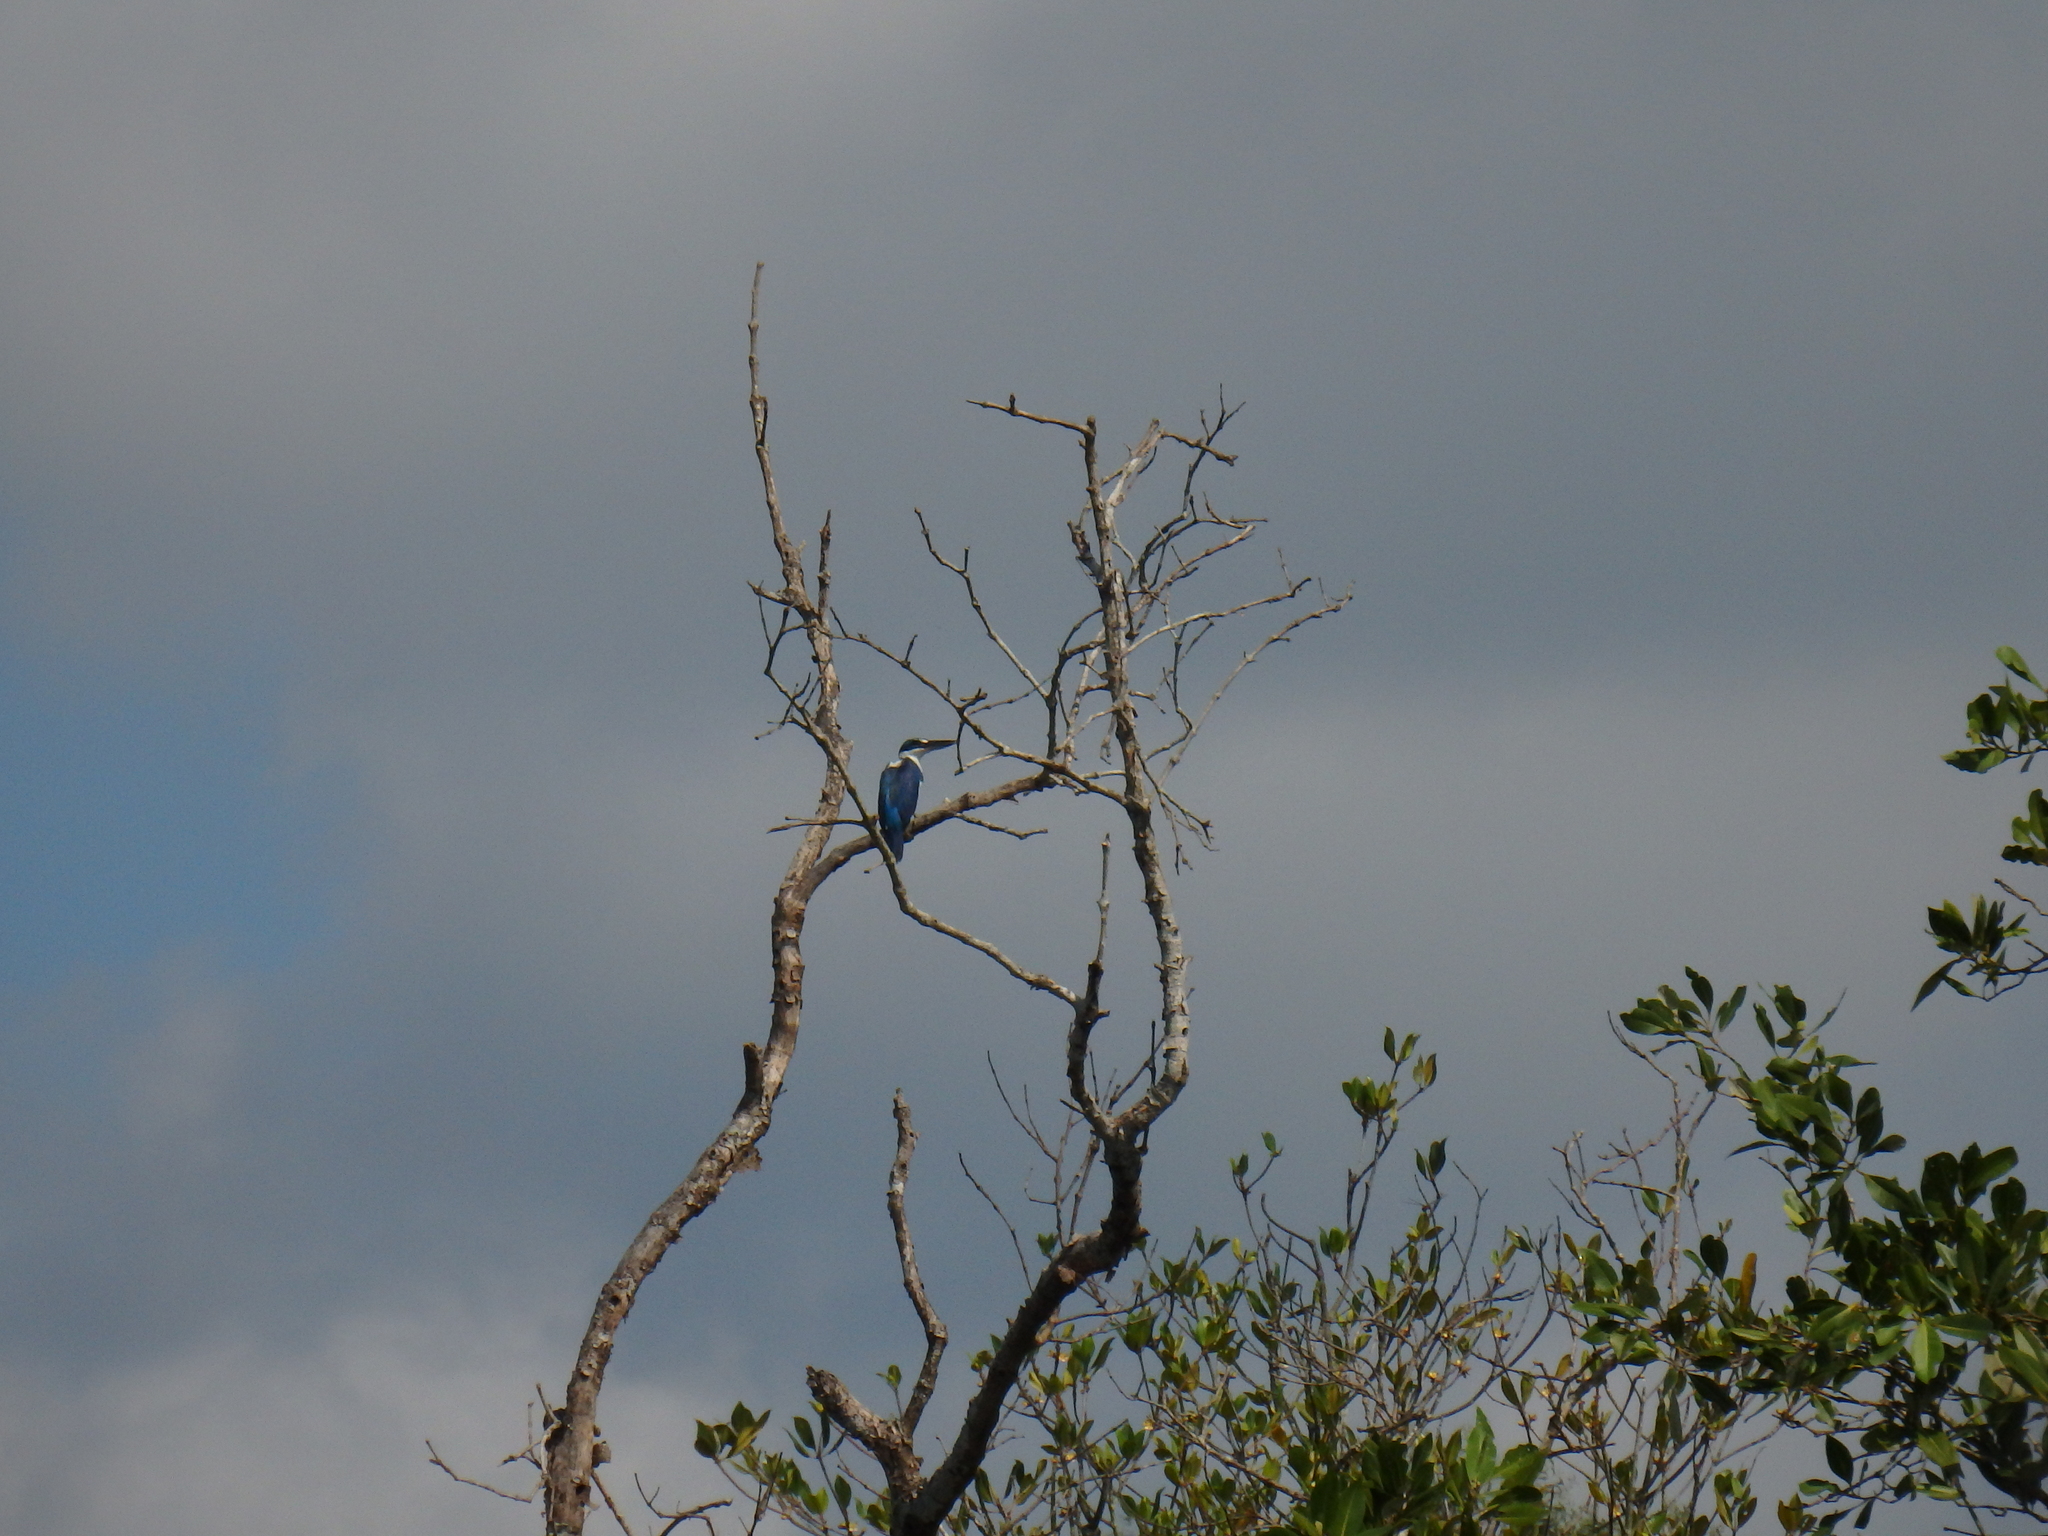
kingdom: Animalia
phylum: Chordata
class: Aves
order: Coraciiformes
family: Alcedinidae
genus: Todiramphus
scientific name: Todiramphus chloris
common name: Collared kingfisher
